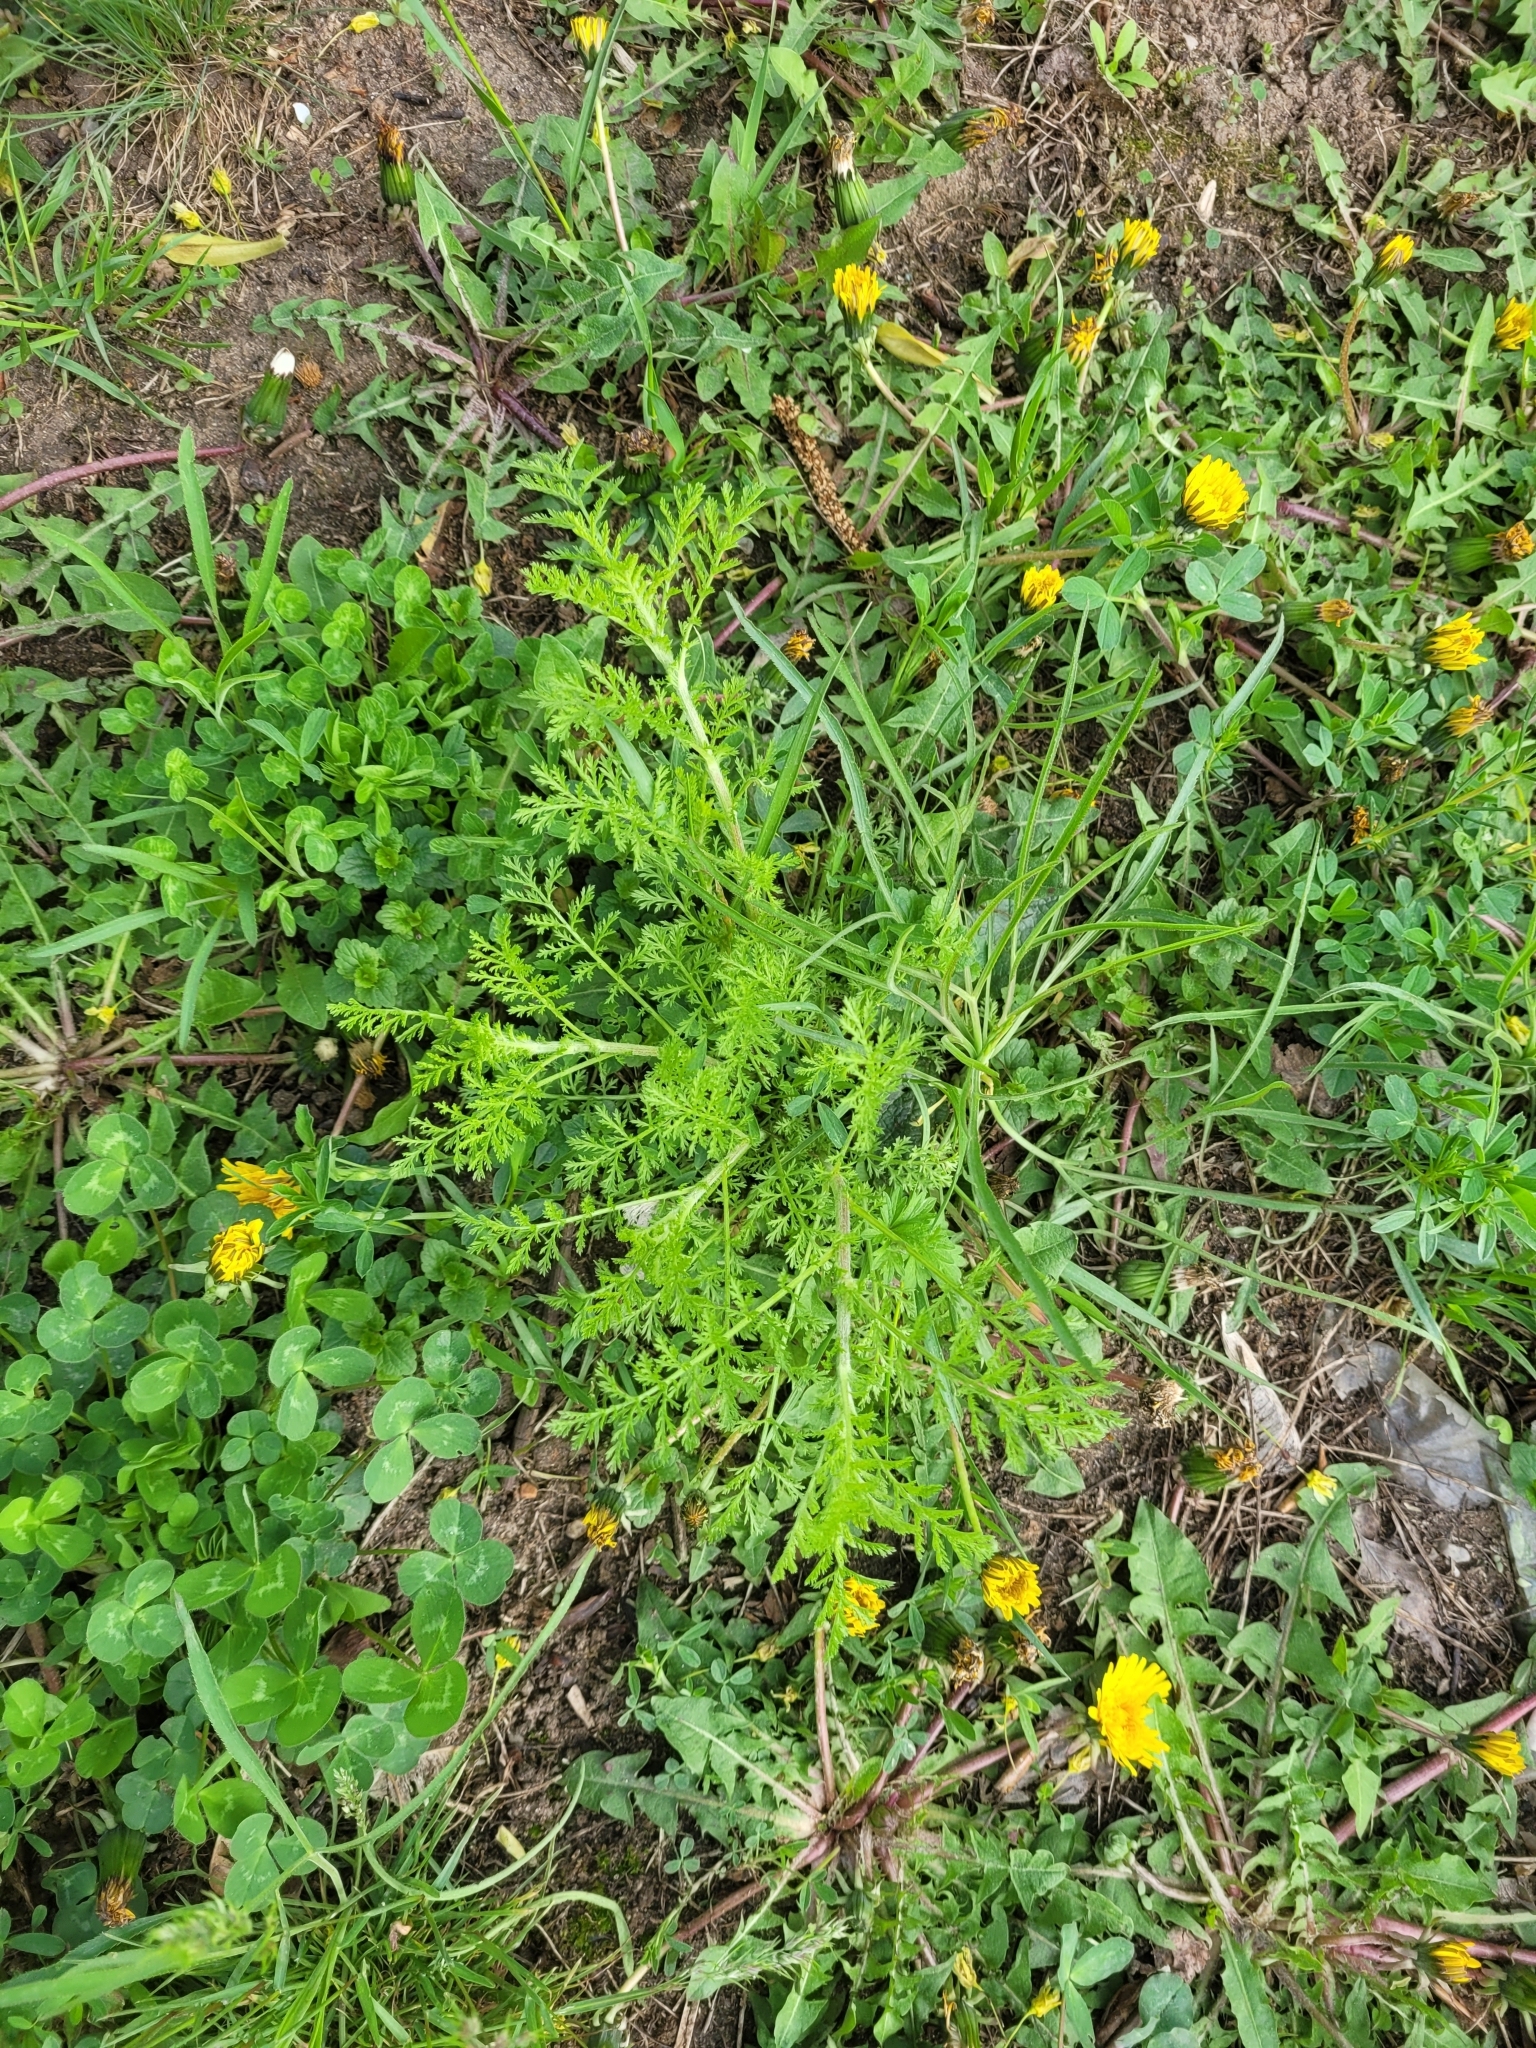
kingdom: Plantae
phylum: Tracheophyta
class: Magnoliopsida
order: Asterales
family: Asteraceae
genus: Achillea
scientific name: Achillea nobilis
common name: Noble yarrow
